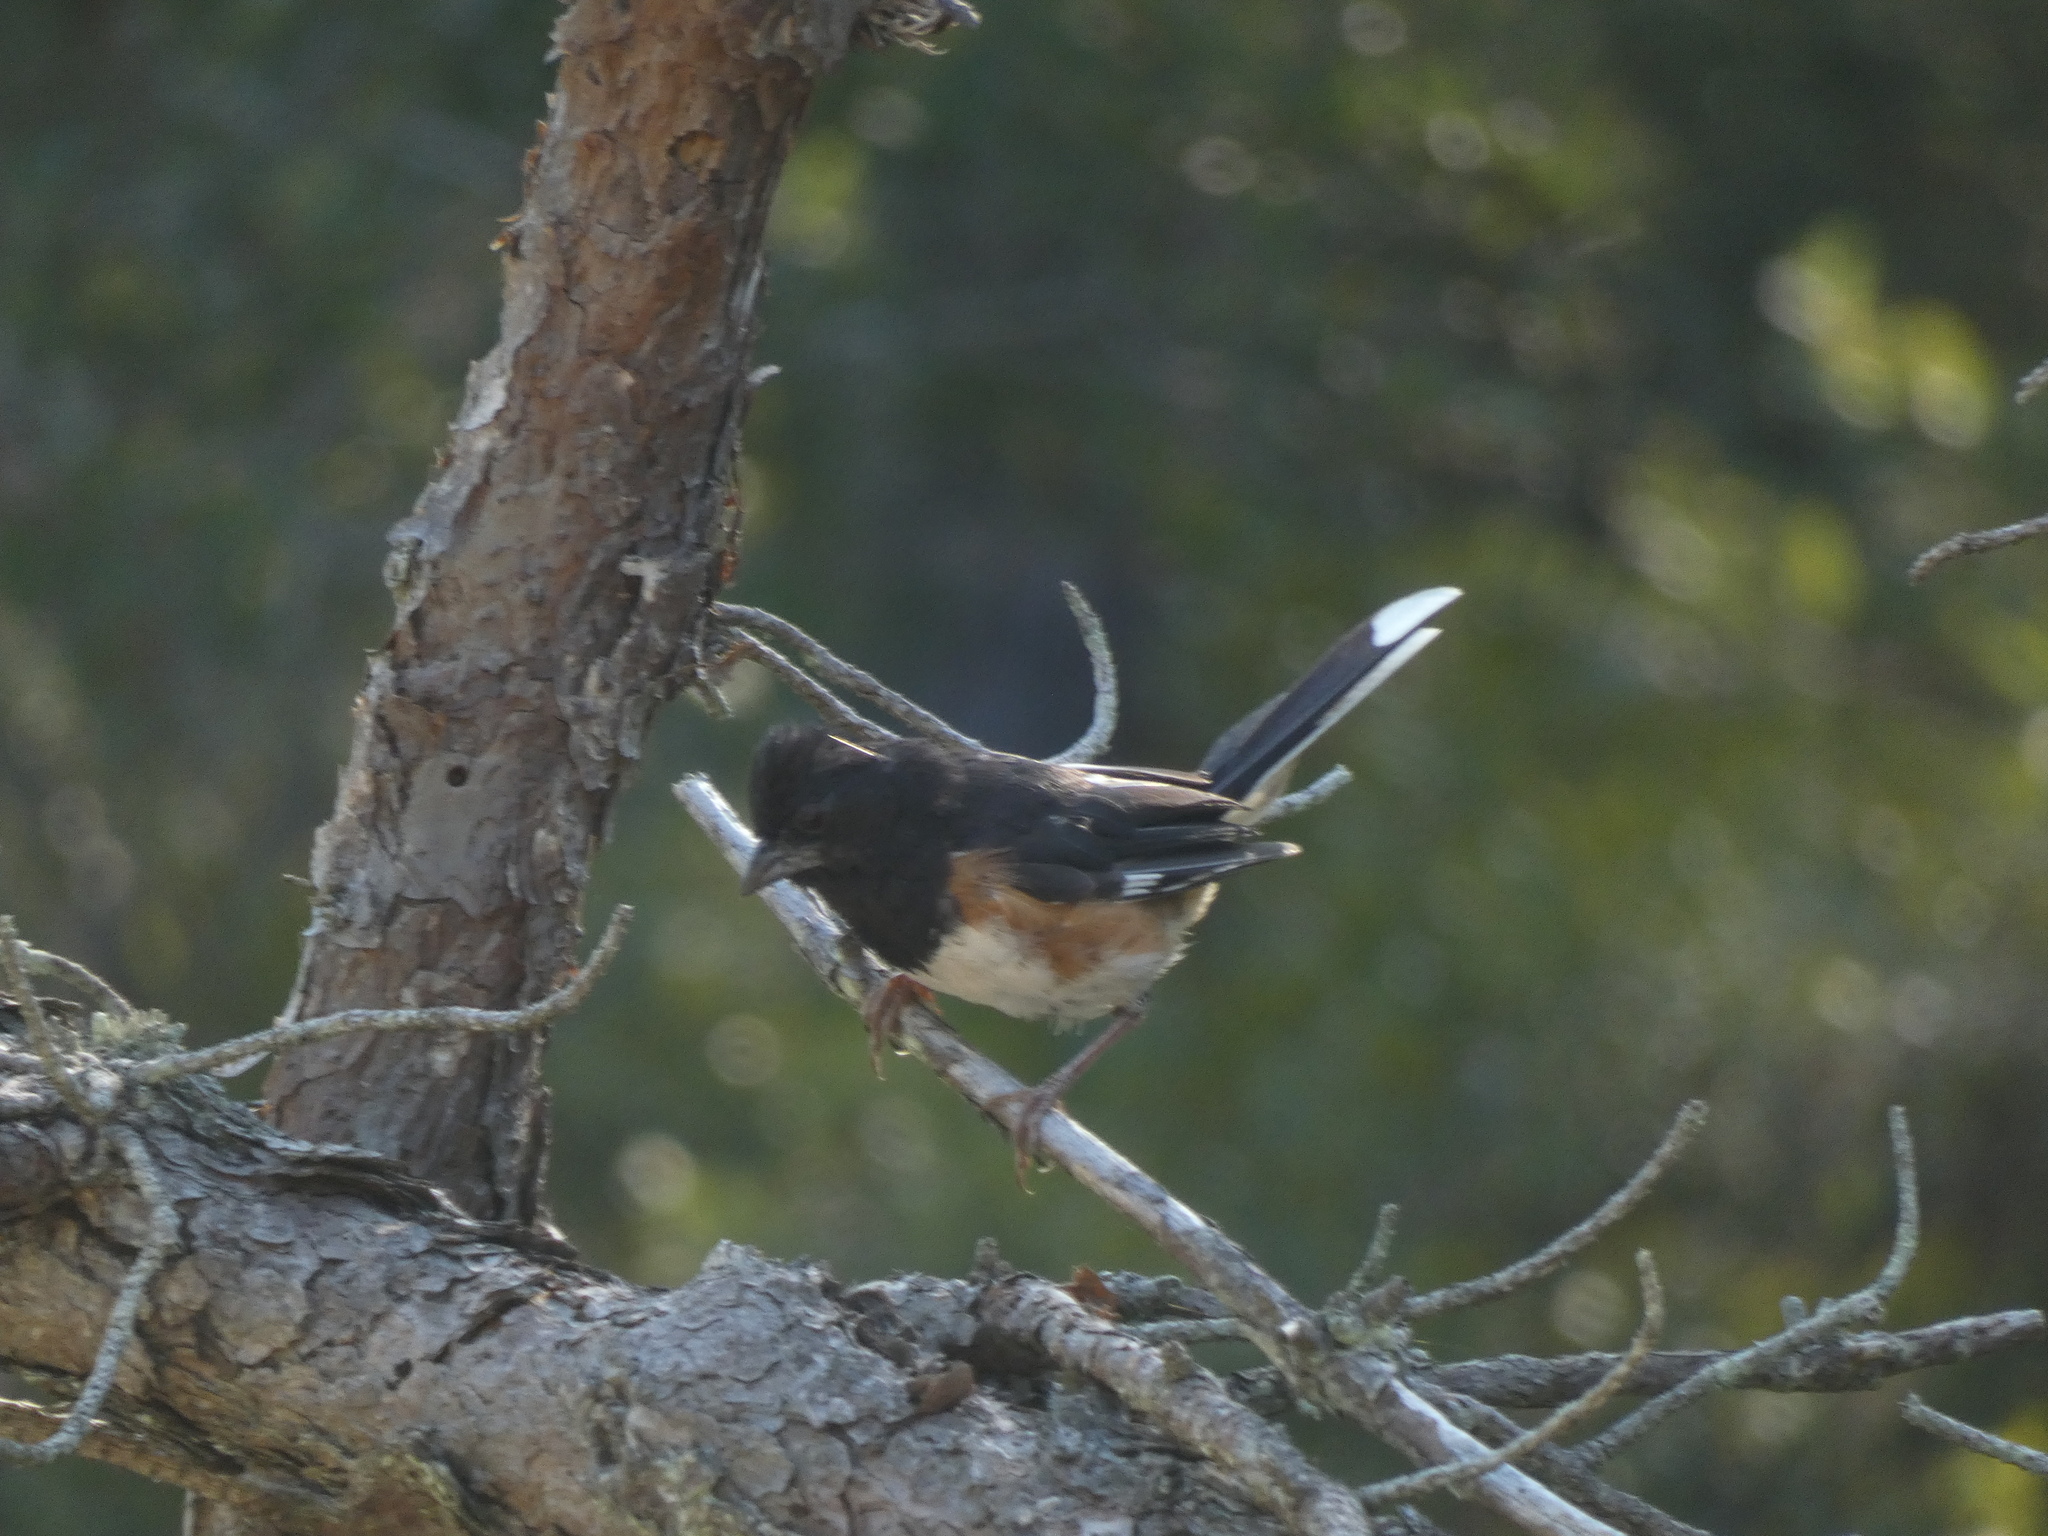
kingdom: Animalia
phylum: Chordata
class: Aves
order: Passeriformes
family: Passerellidae
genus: Pipilo
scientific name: Pipilo erythrophthalmus
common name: Eastern towhee
